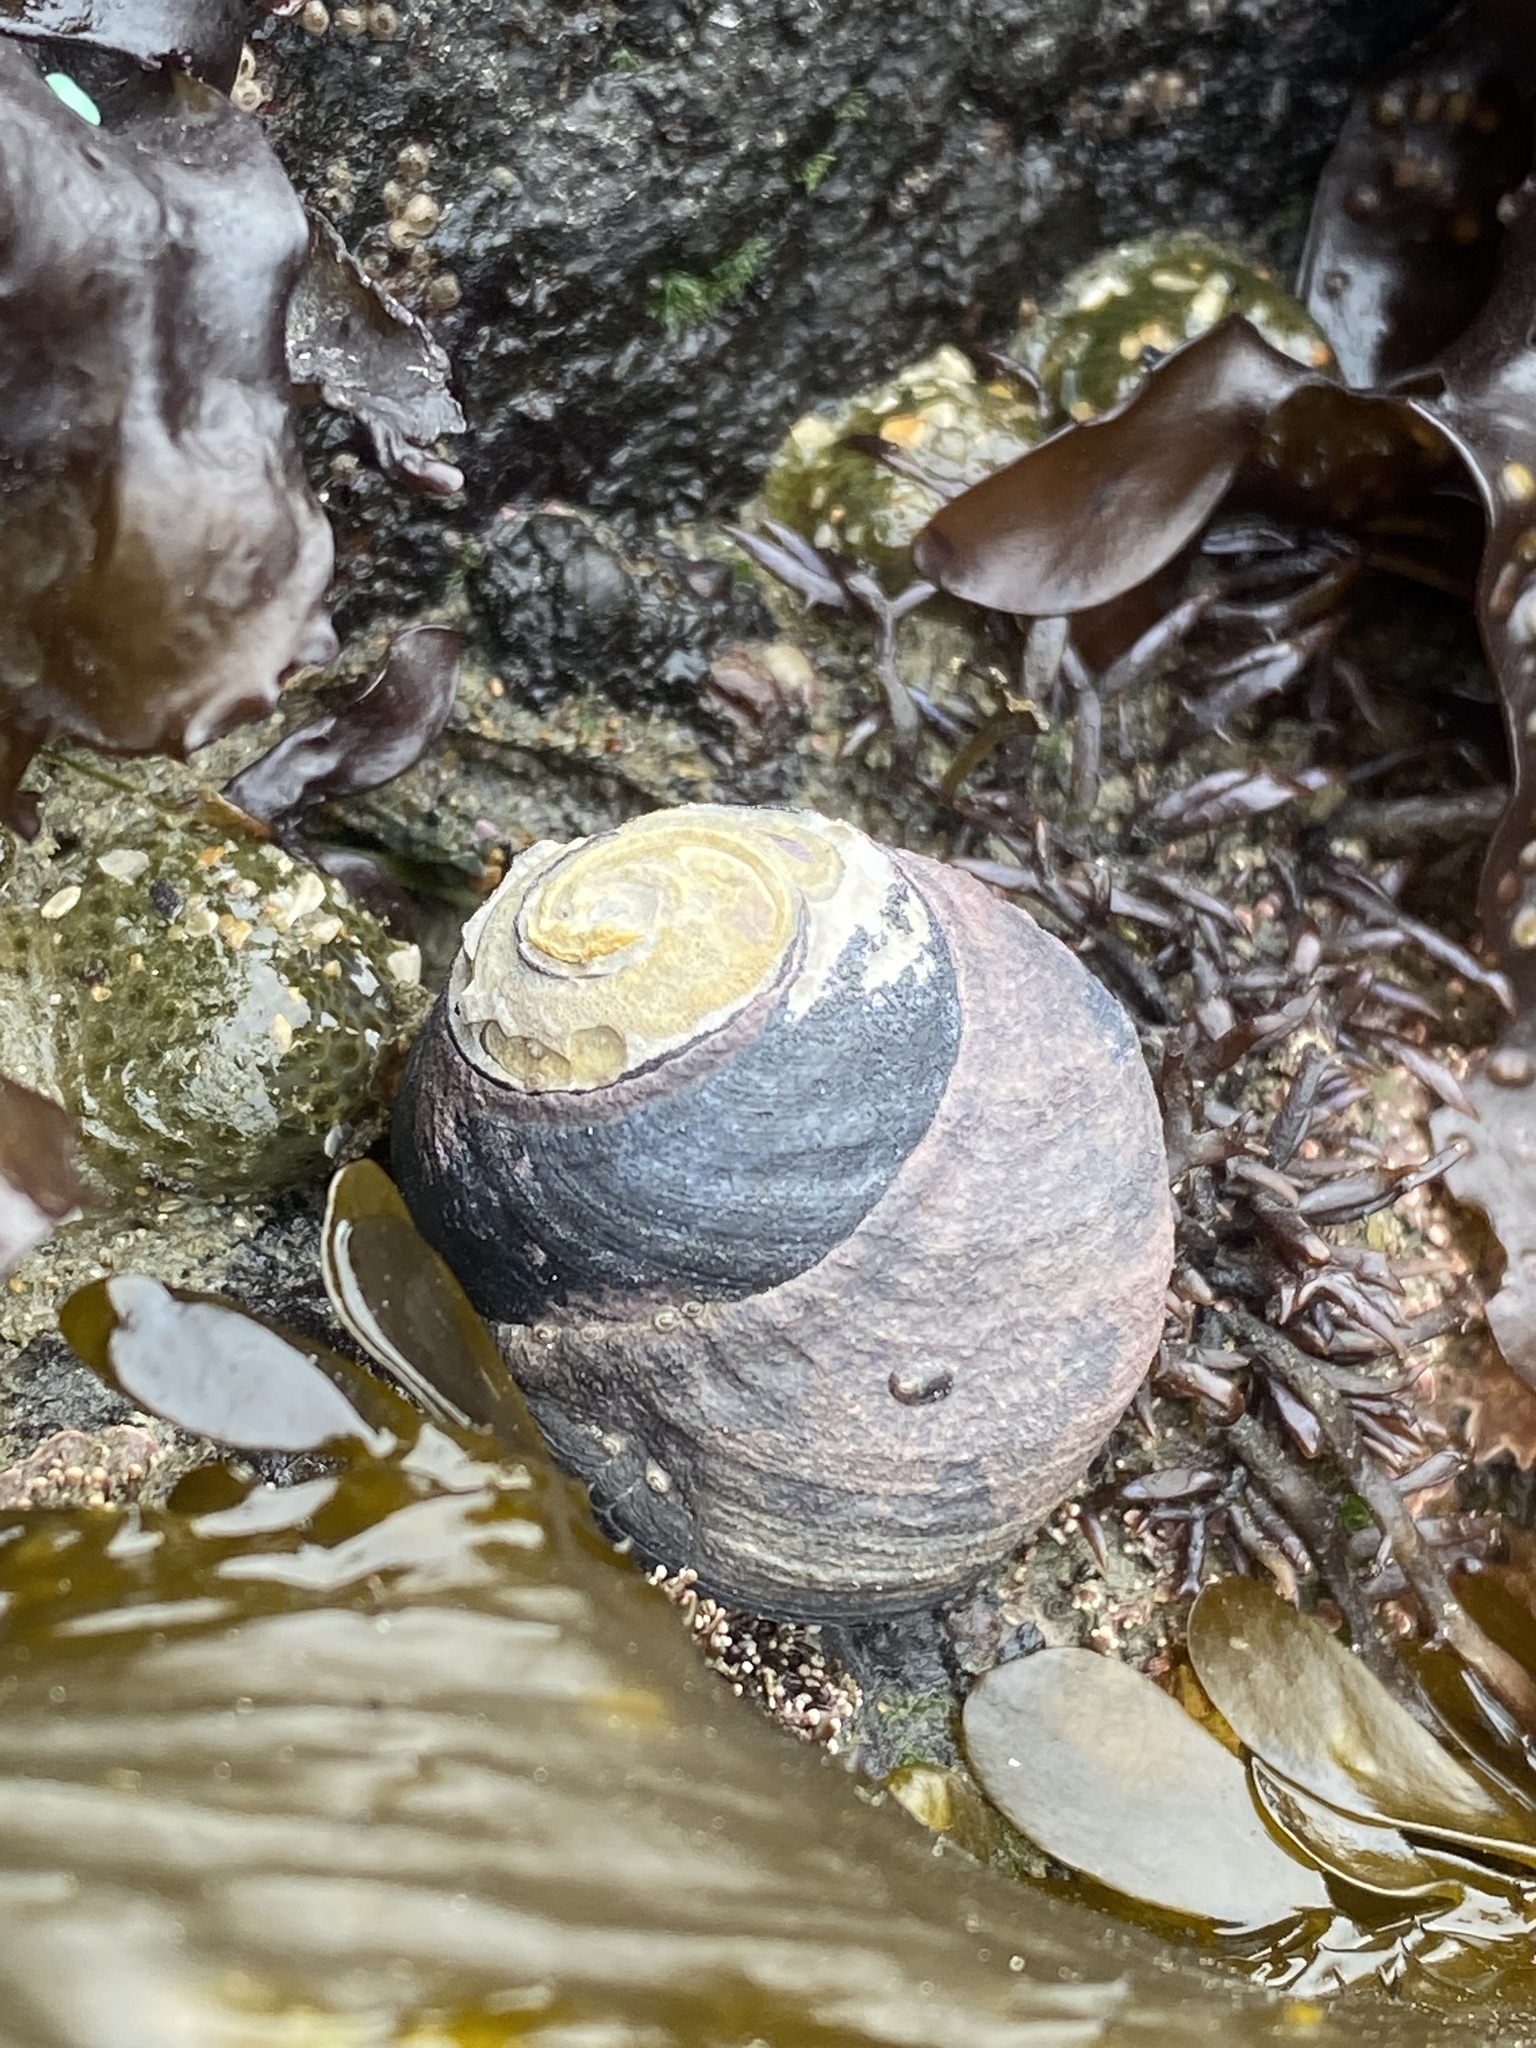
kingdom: Animalia
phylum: Mollusca
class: Gastropoda
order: Trochida
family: Tegulidae
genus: Tegula
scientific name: Tegula funebralis
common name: Black tegula
